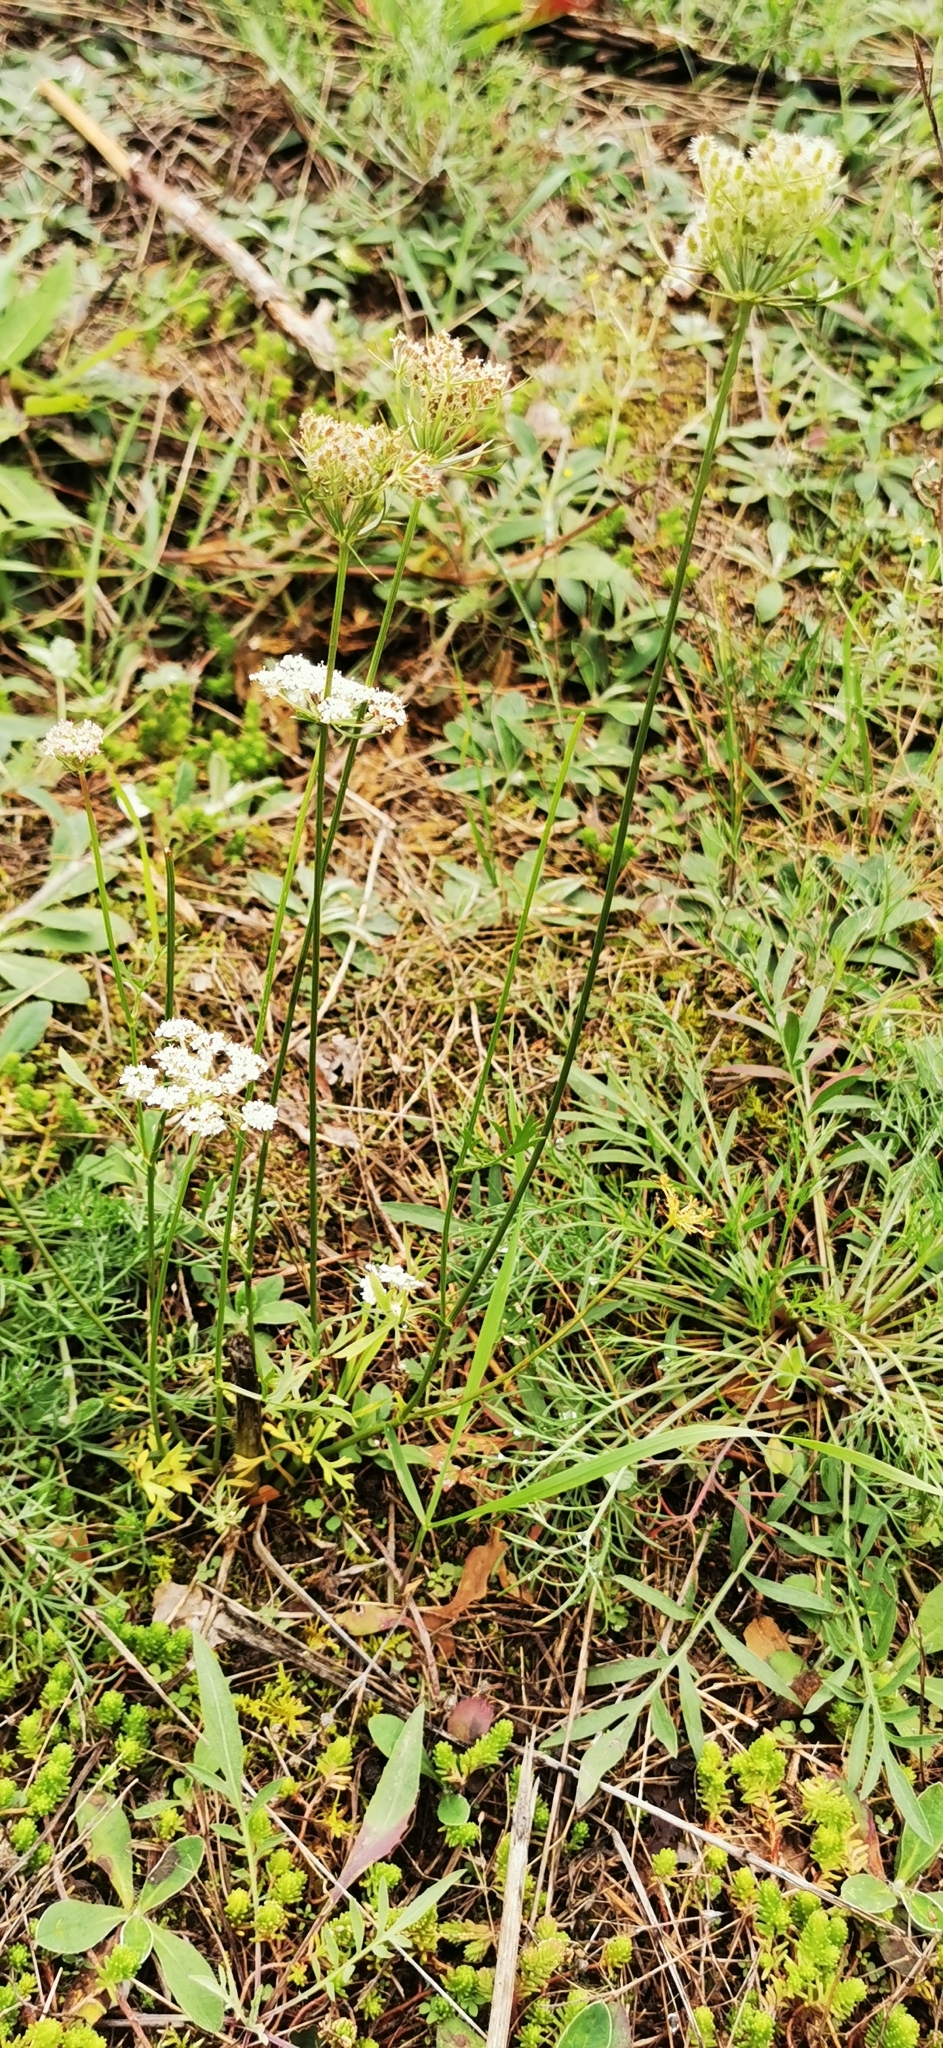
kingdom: Plantae
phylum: Tracheophyta
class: Magnoliopsida
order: Apiales
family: Apiaceae
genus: Daucus
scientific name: Daucus carota
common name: Wild carrot
